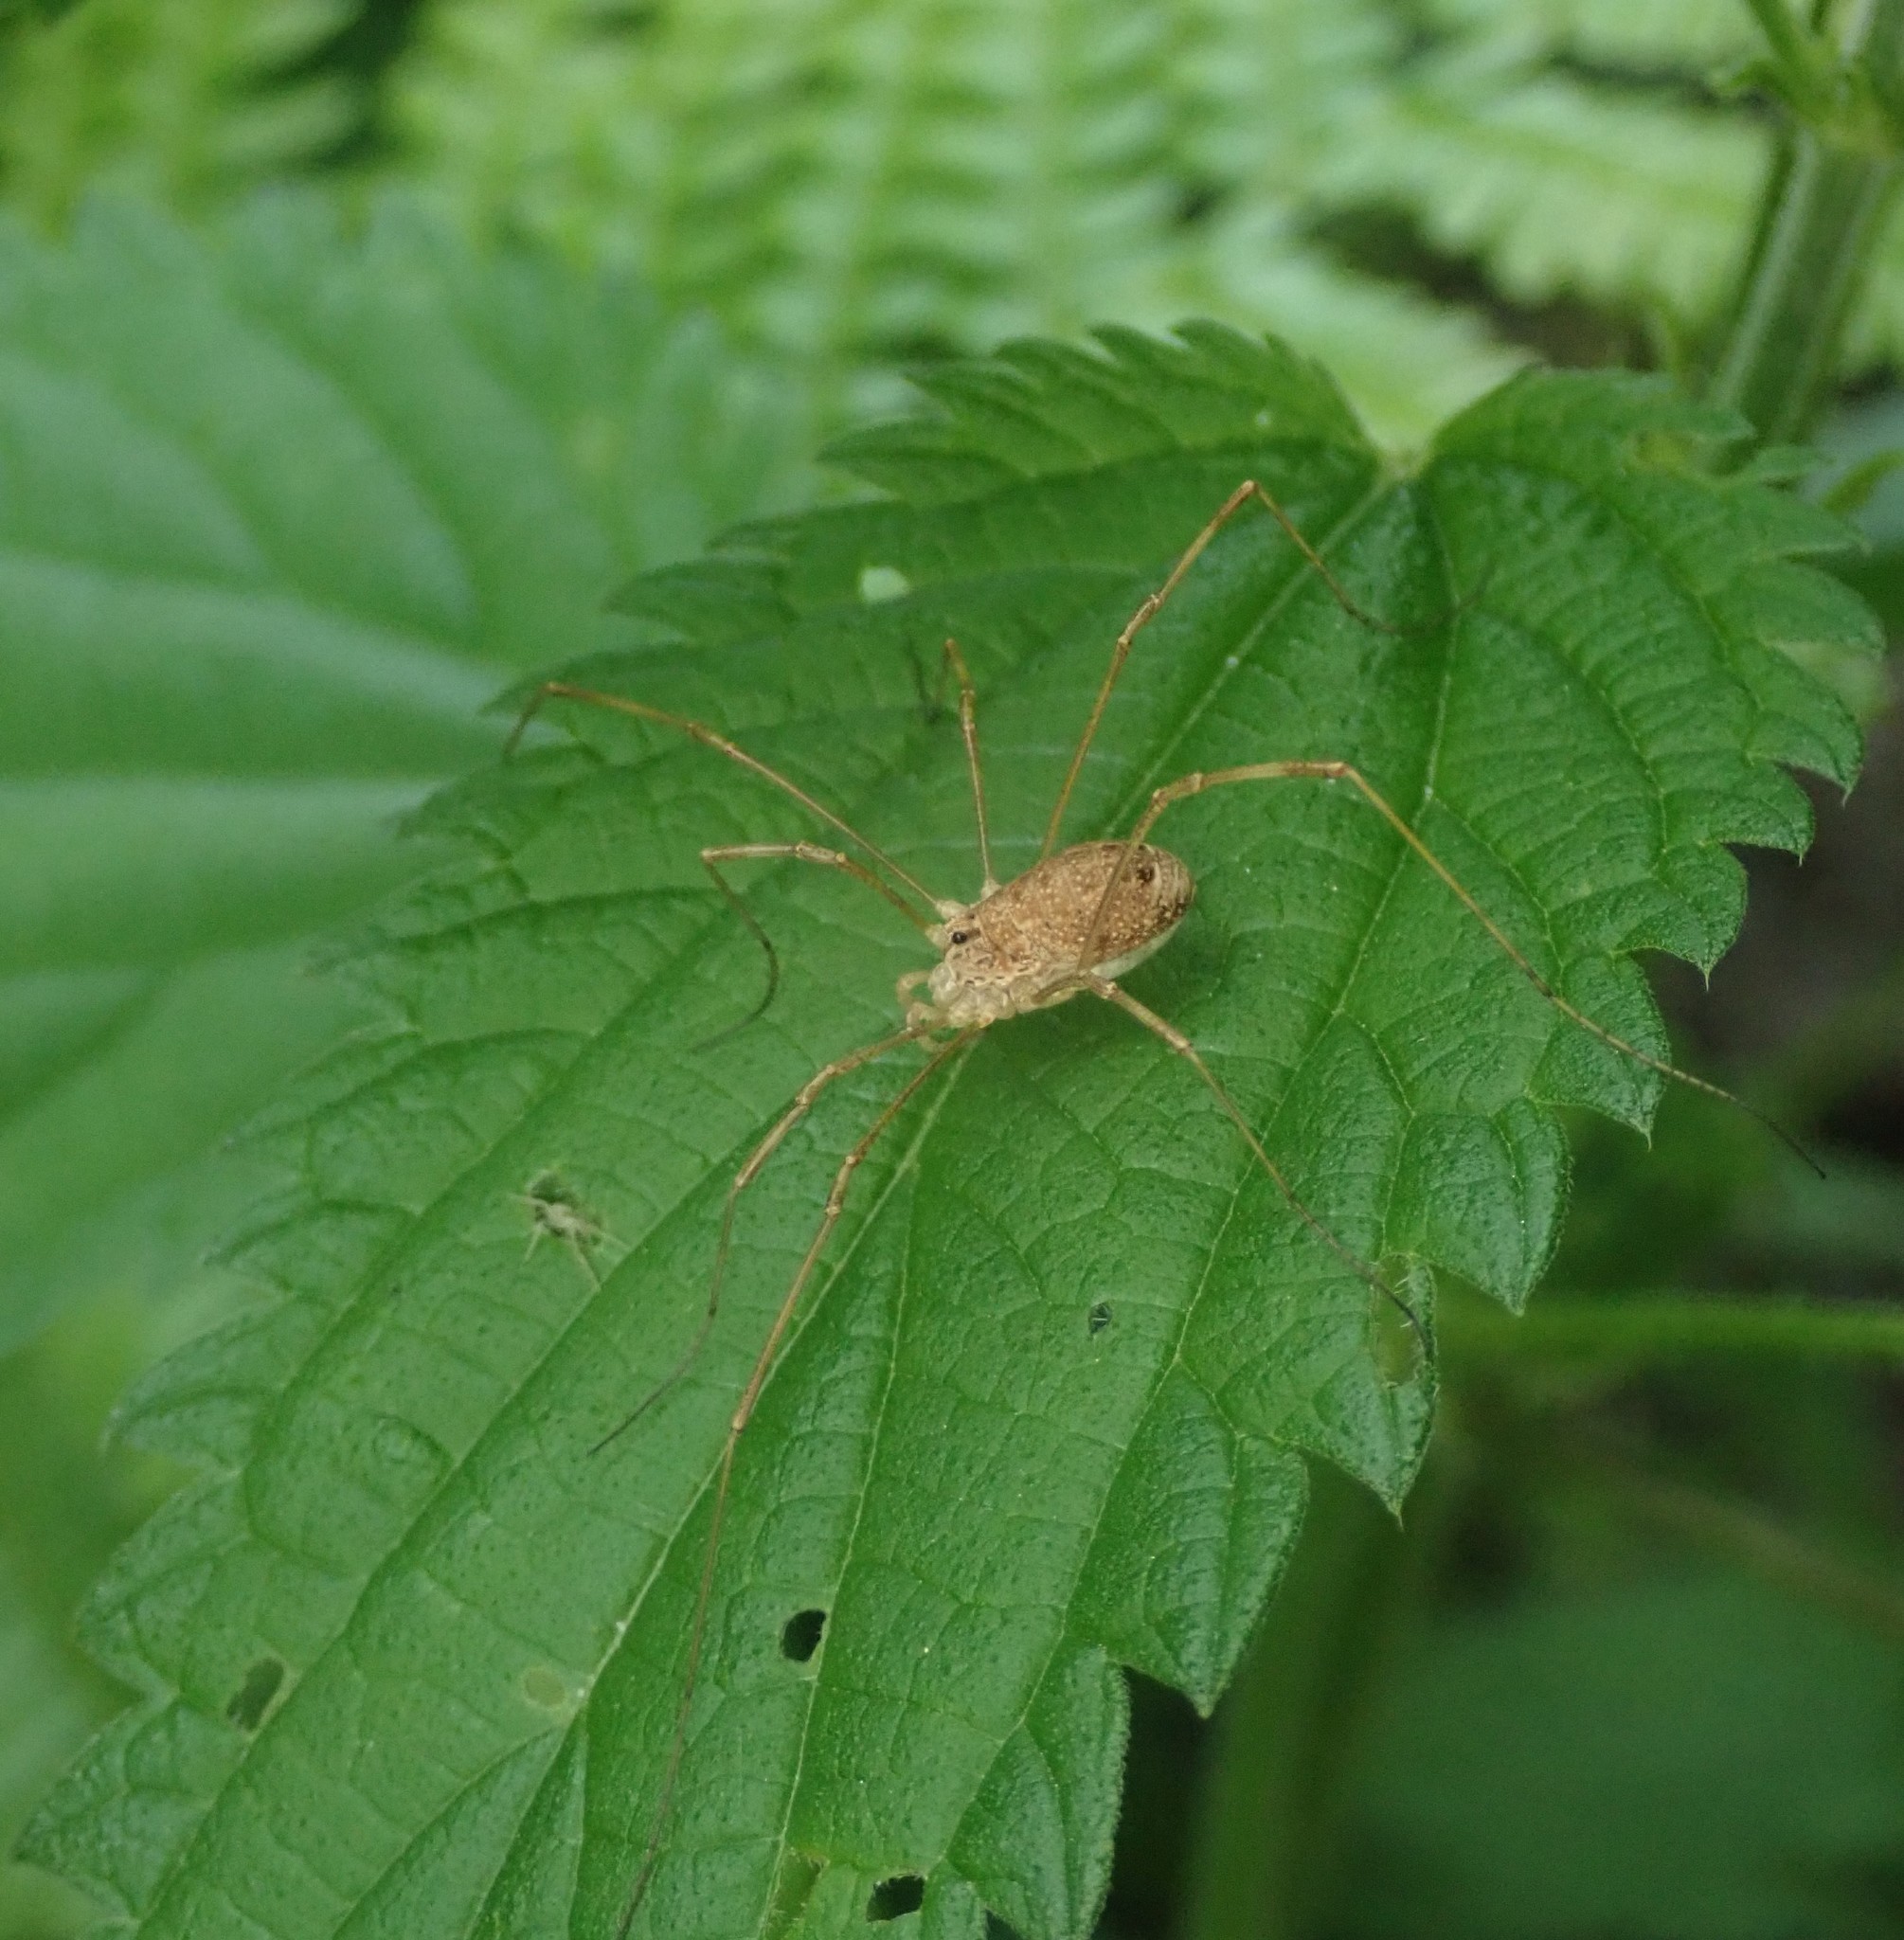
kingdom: Animalia
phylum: Arthropoda
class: Arachnida
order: Opiliones
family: Phalangiidae
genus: Rilaena
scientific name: Rilaena triangularis
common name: Spring harvestman
